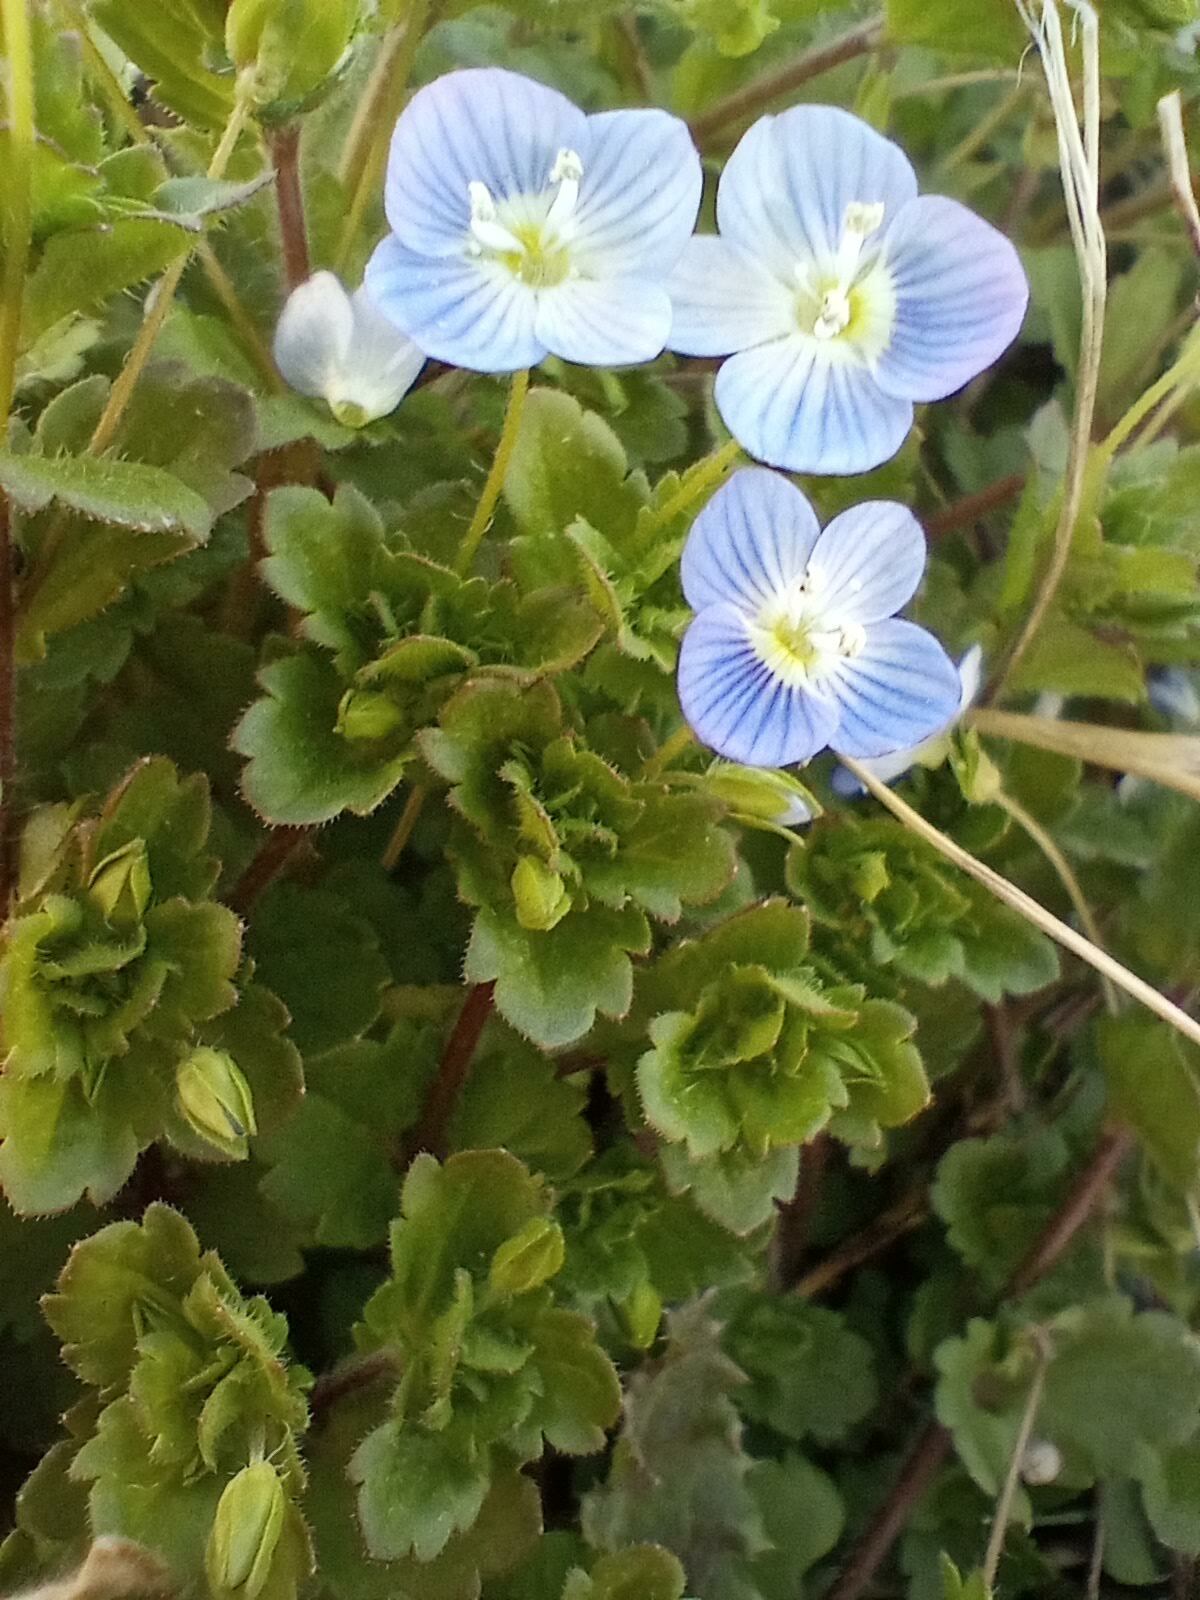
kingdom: Plantae
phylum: Tracheophyta
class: Magnoliopsida
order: Lamiales
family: Plantaginaceae
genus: Veronica
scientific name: Veronica persica
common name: Common field-speedwell
